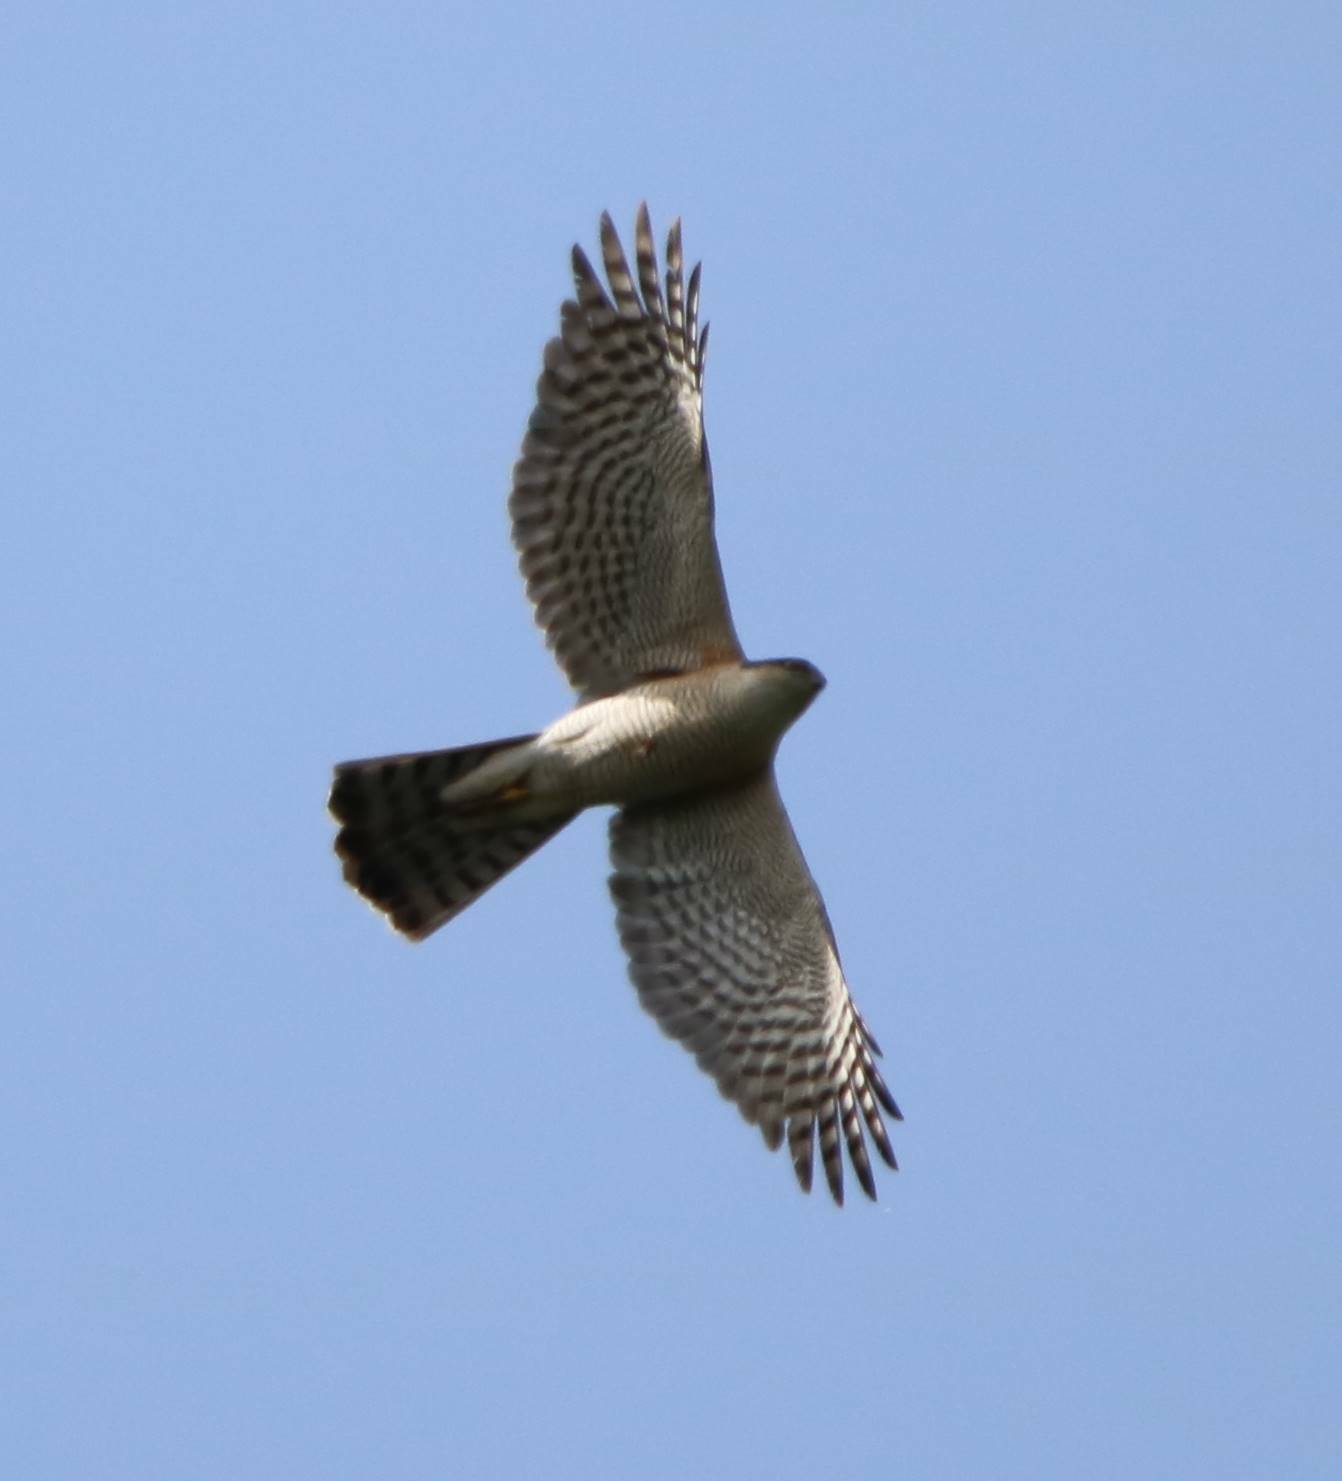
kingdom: Animalia
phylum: Chordata
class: Aves
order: Accipitriformes
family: Accipitridae
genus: Accipiter
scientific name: Accipiter nisus
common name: Eurasian sparrowhawk
